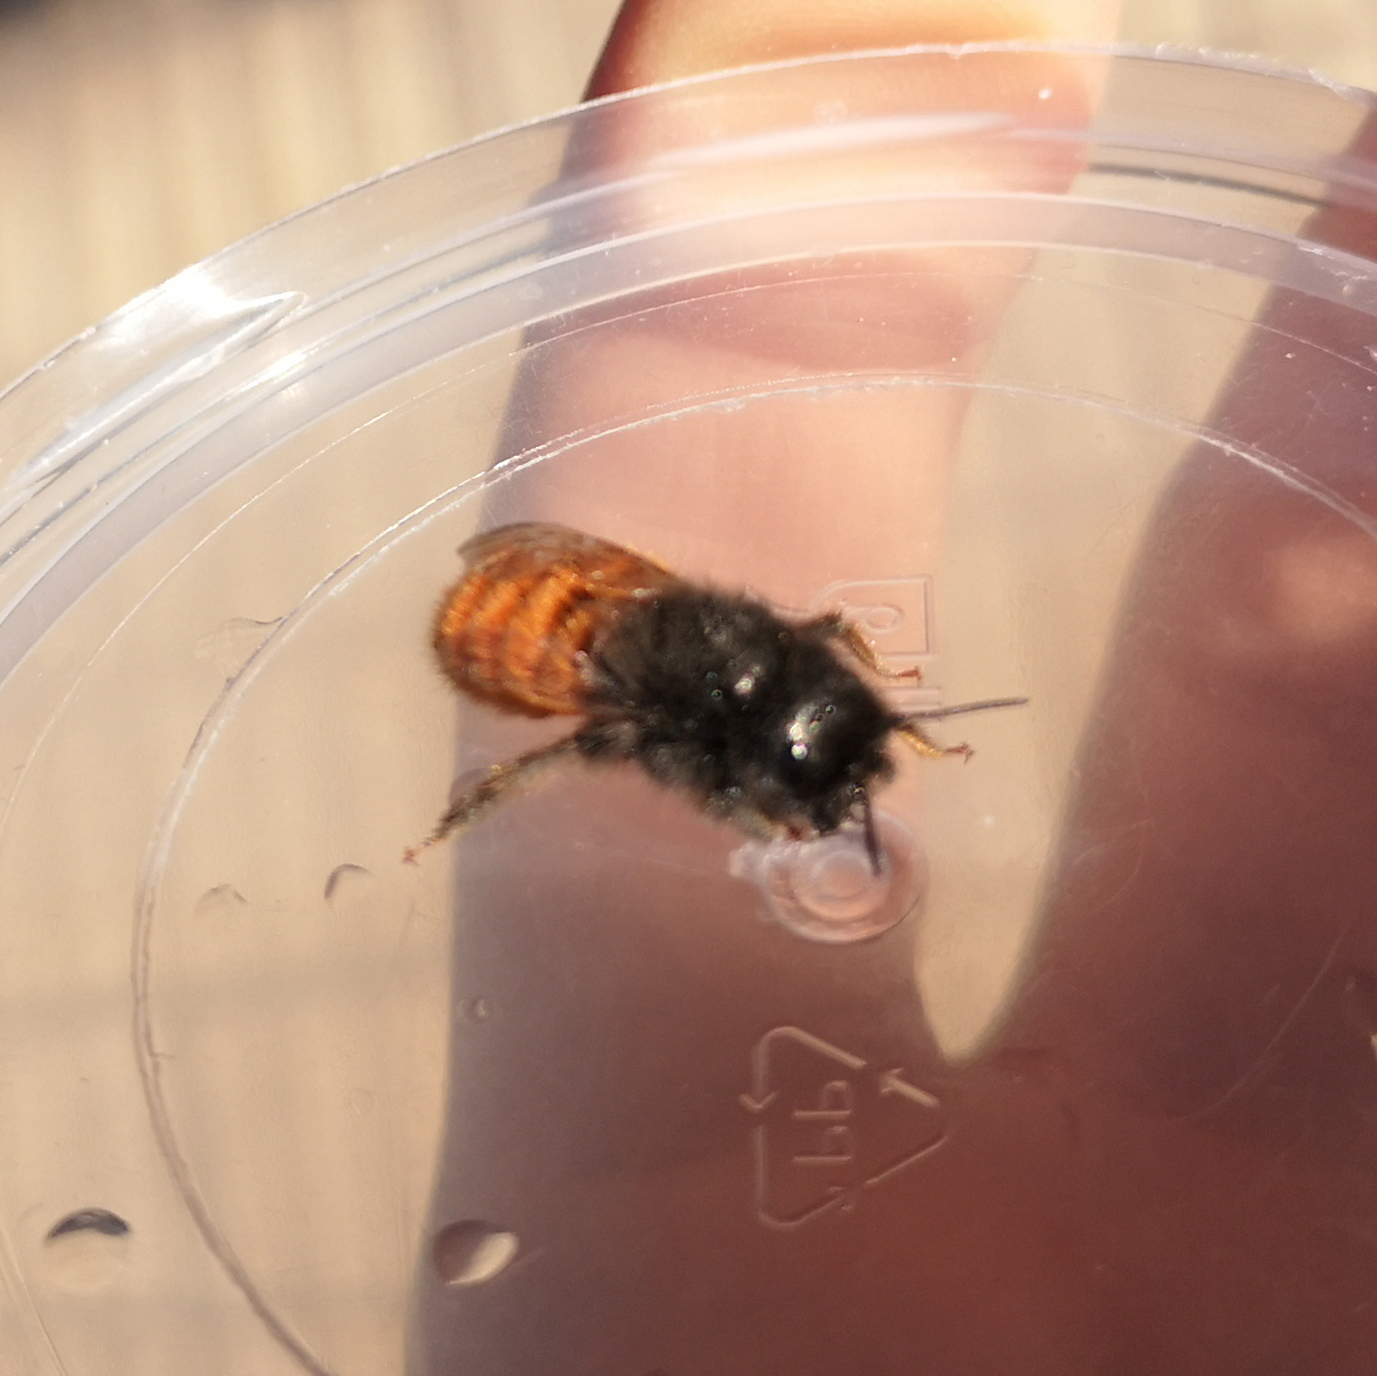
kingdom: Animalia
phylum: Arthropoda
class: Insecta
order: Hymenoptera
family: Megachilidae
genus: Osmia
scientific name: Osmia cornuta
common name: Mason bee
